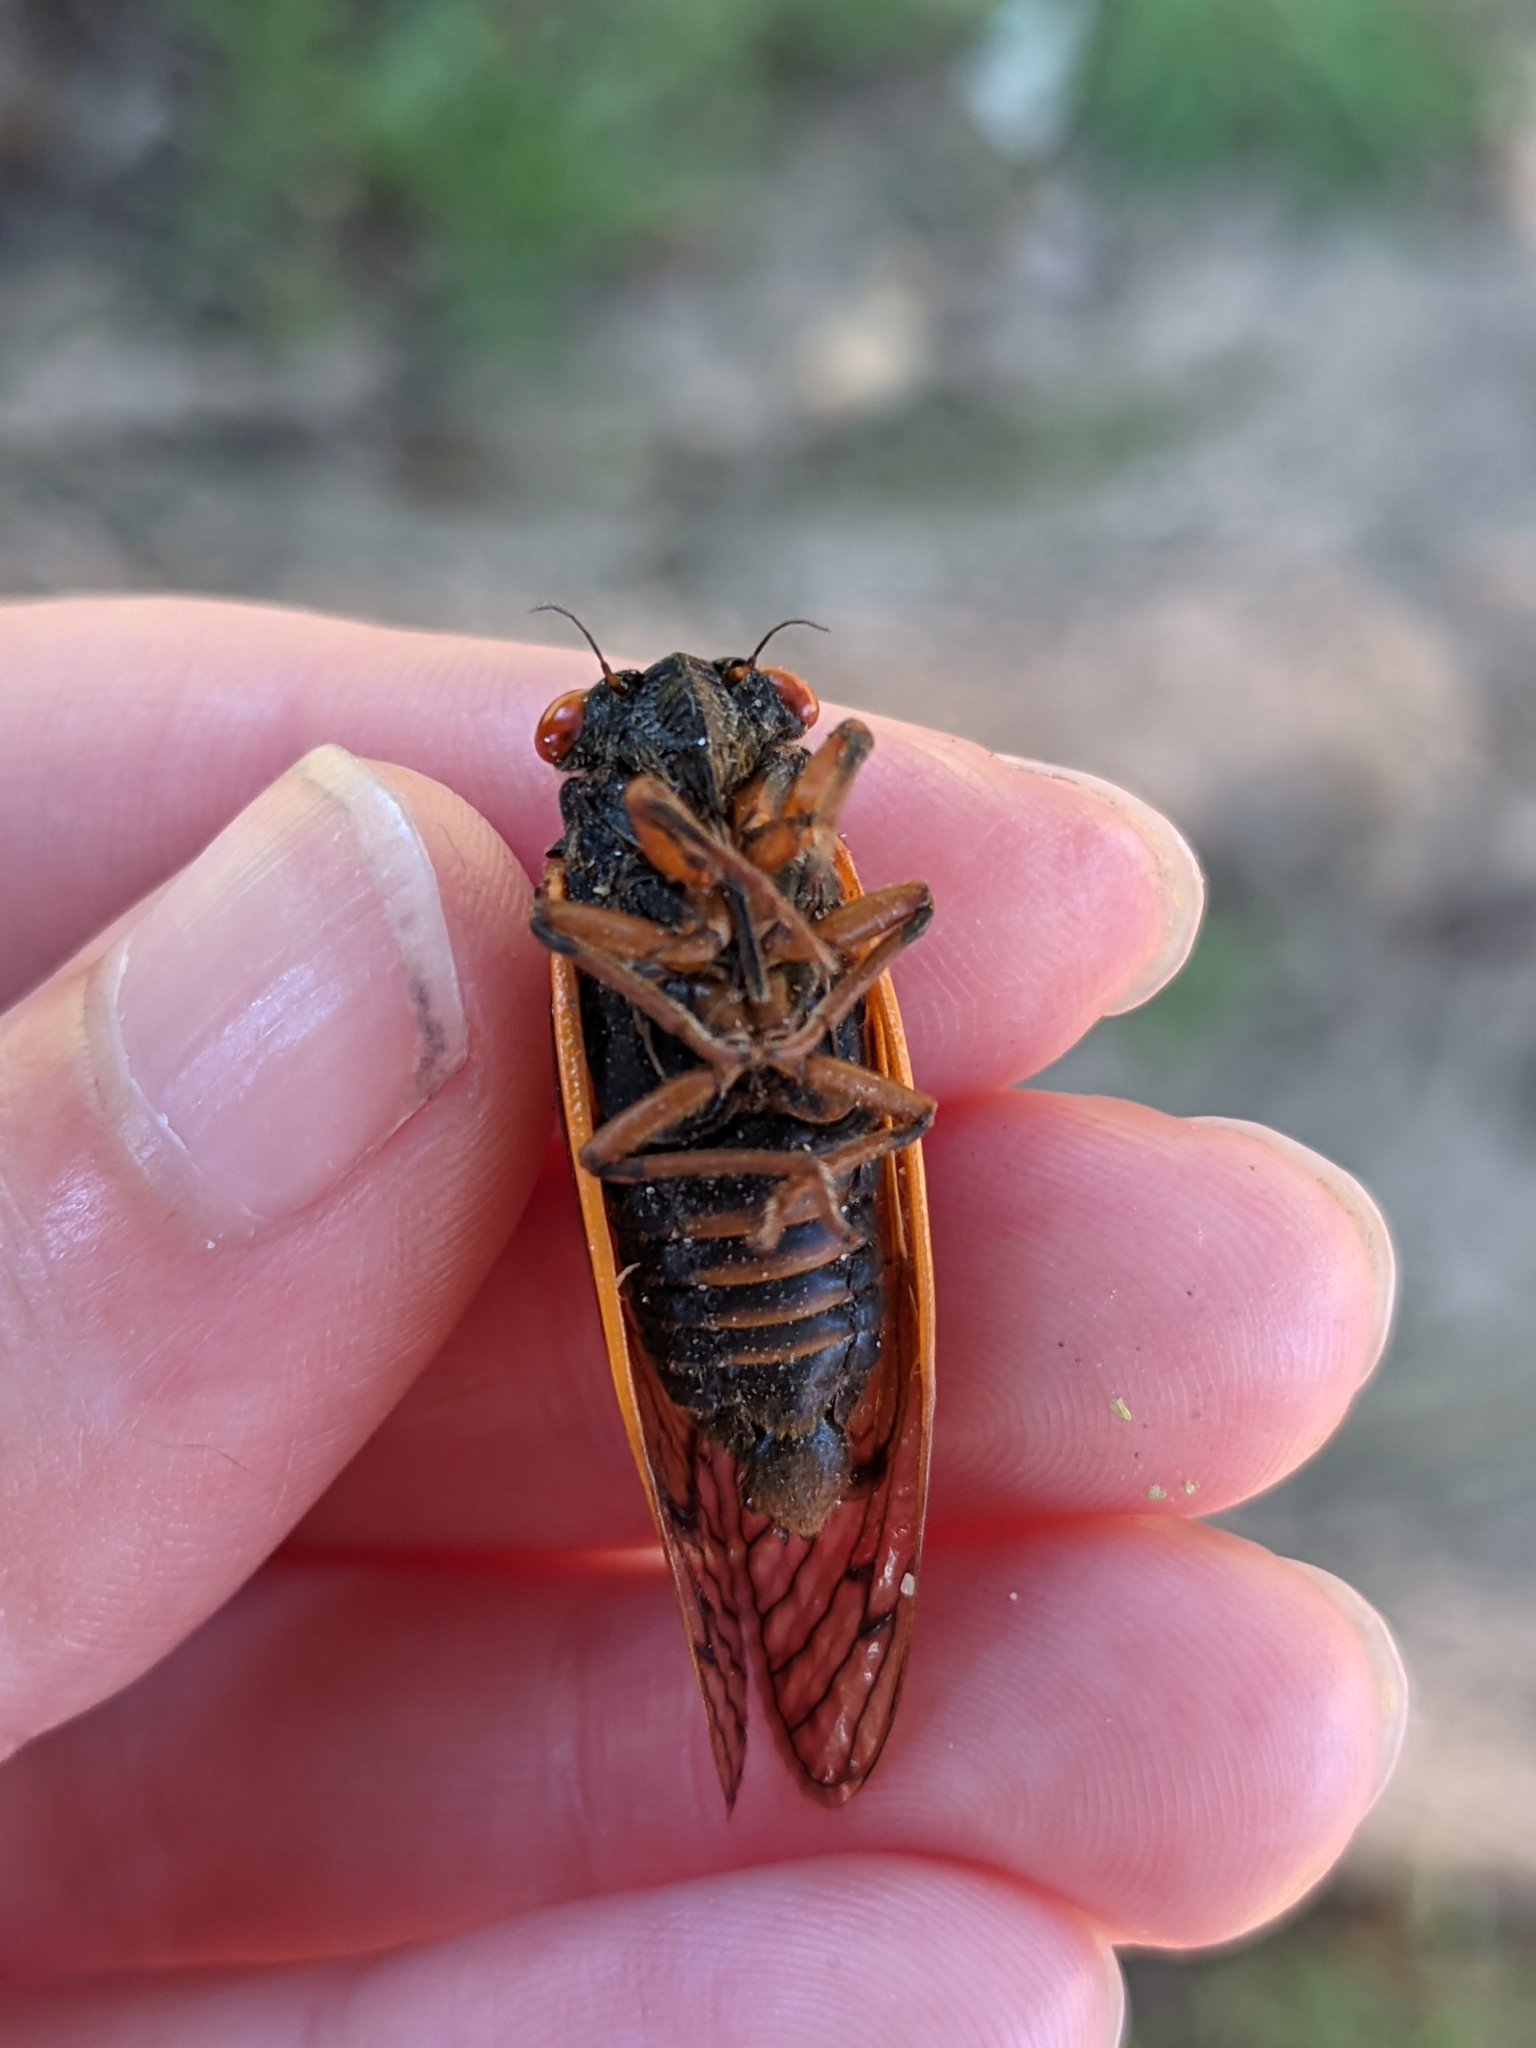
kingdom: Animalia
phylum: Arthropoda
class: Insecta
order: Hemiptera
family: Cicadidae
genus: Magicicada
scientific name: Magicicada septendecula
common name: Decula periodical cicada
